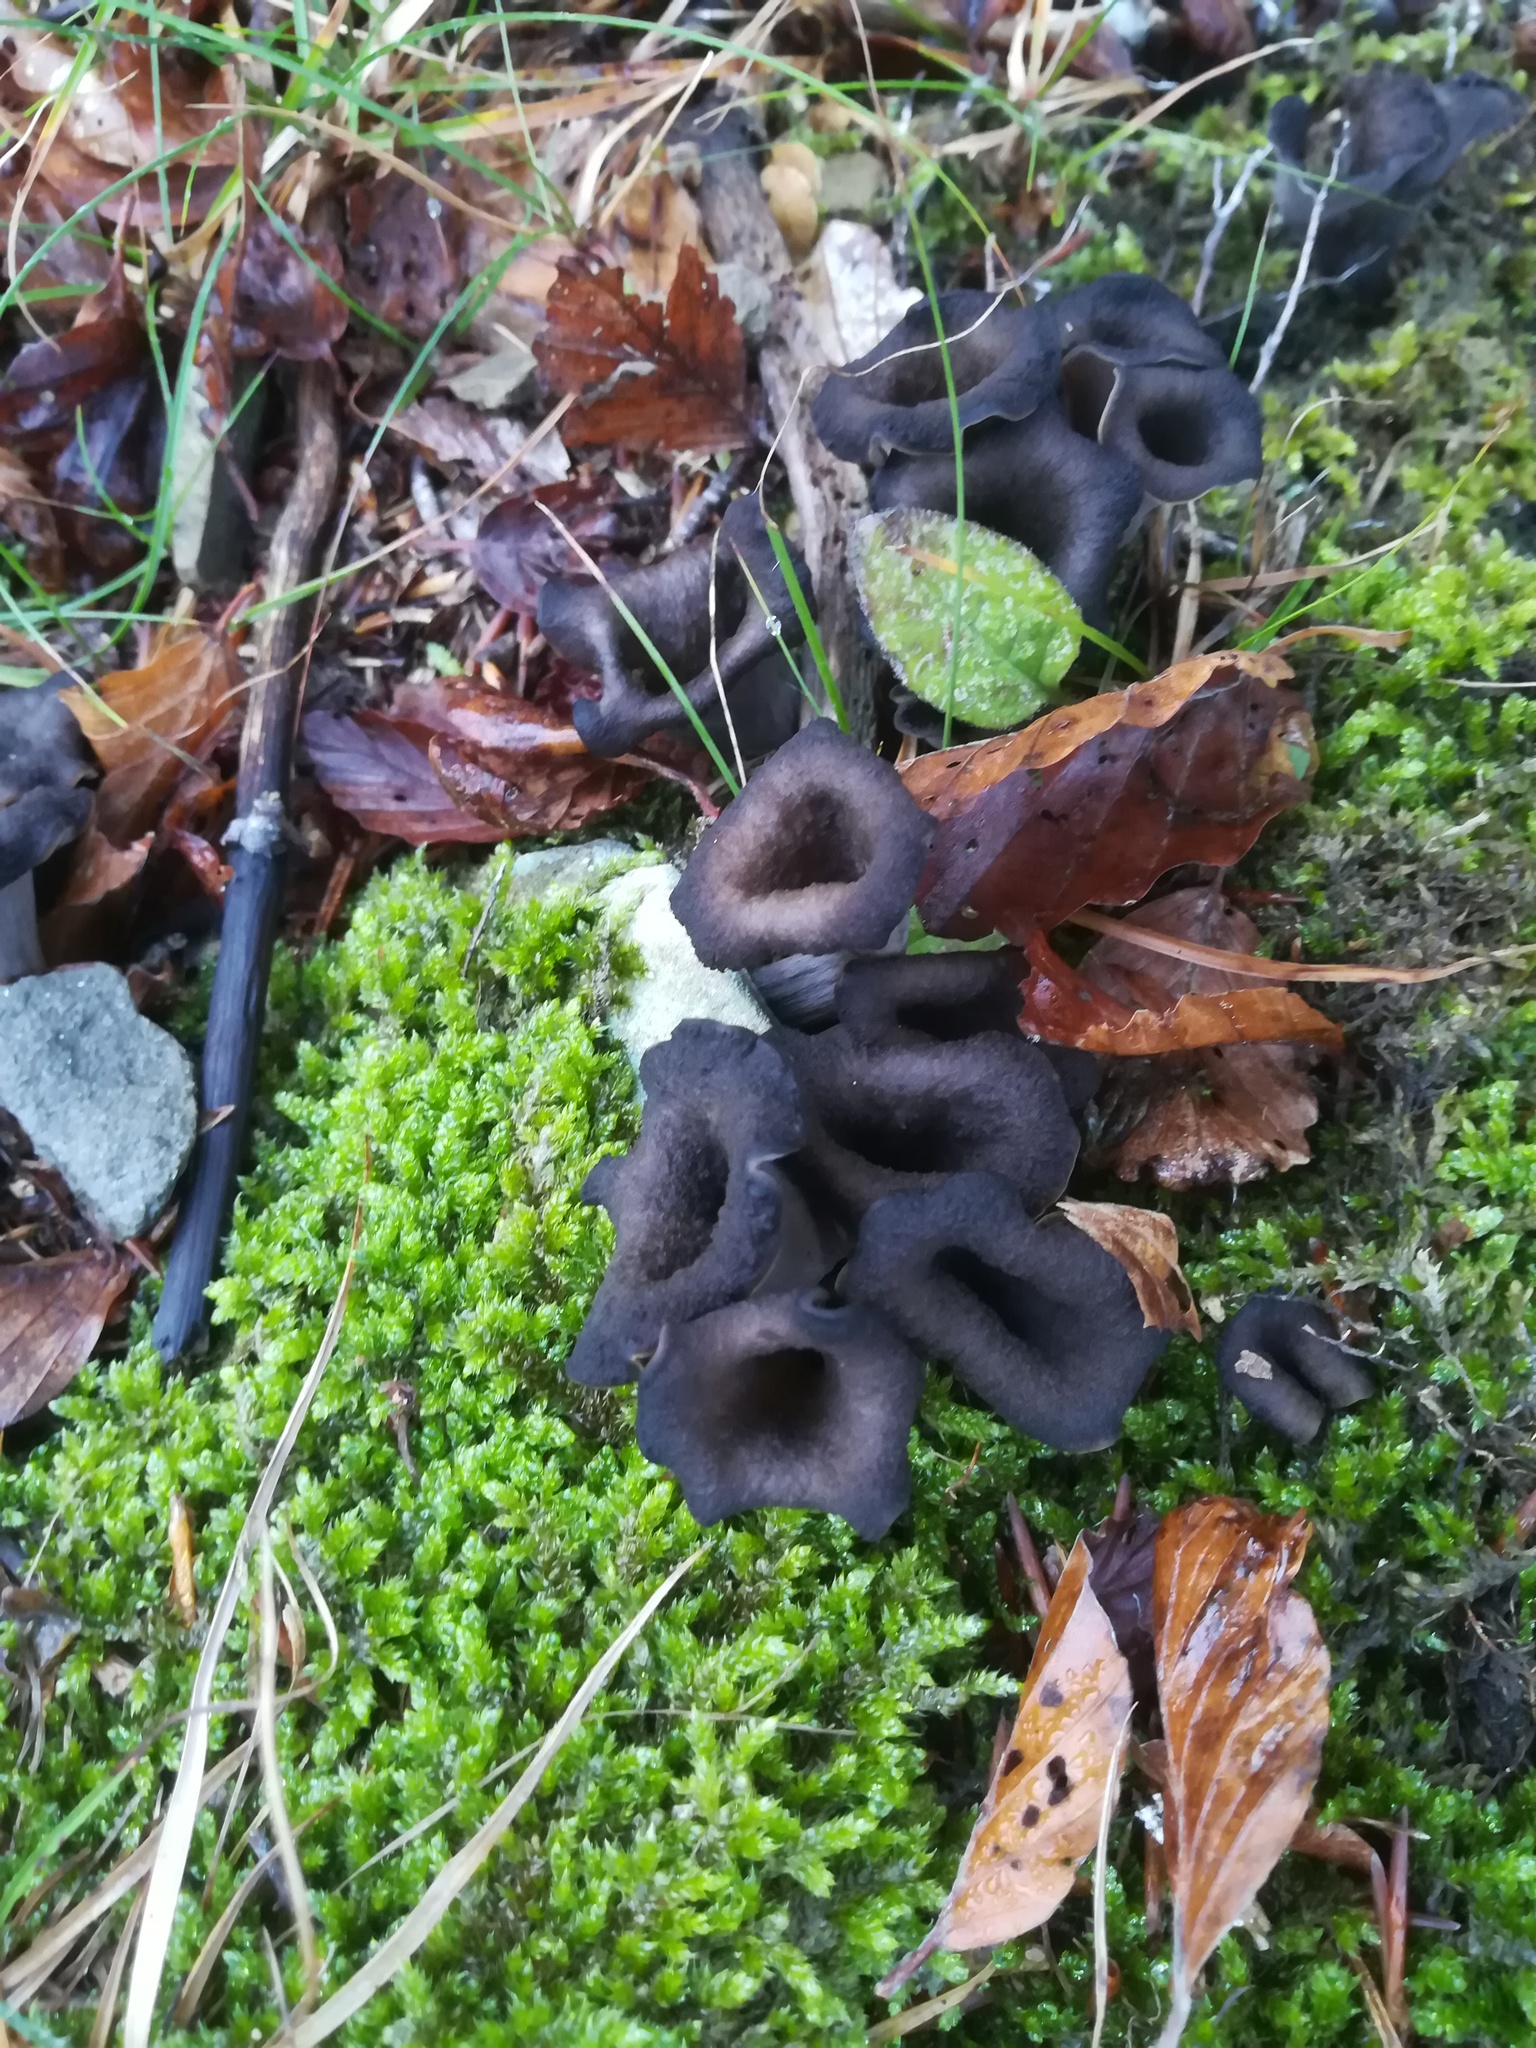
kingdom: Fungi
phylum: Basidiomycota
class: Agaricomycetes
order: Cantharellales
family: Hydnaceae
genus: Craterellus
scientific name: Craterellus cornucopioides
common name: Horn of plenty
